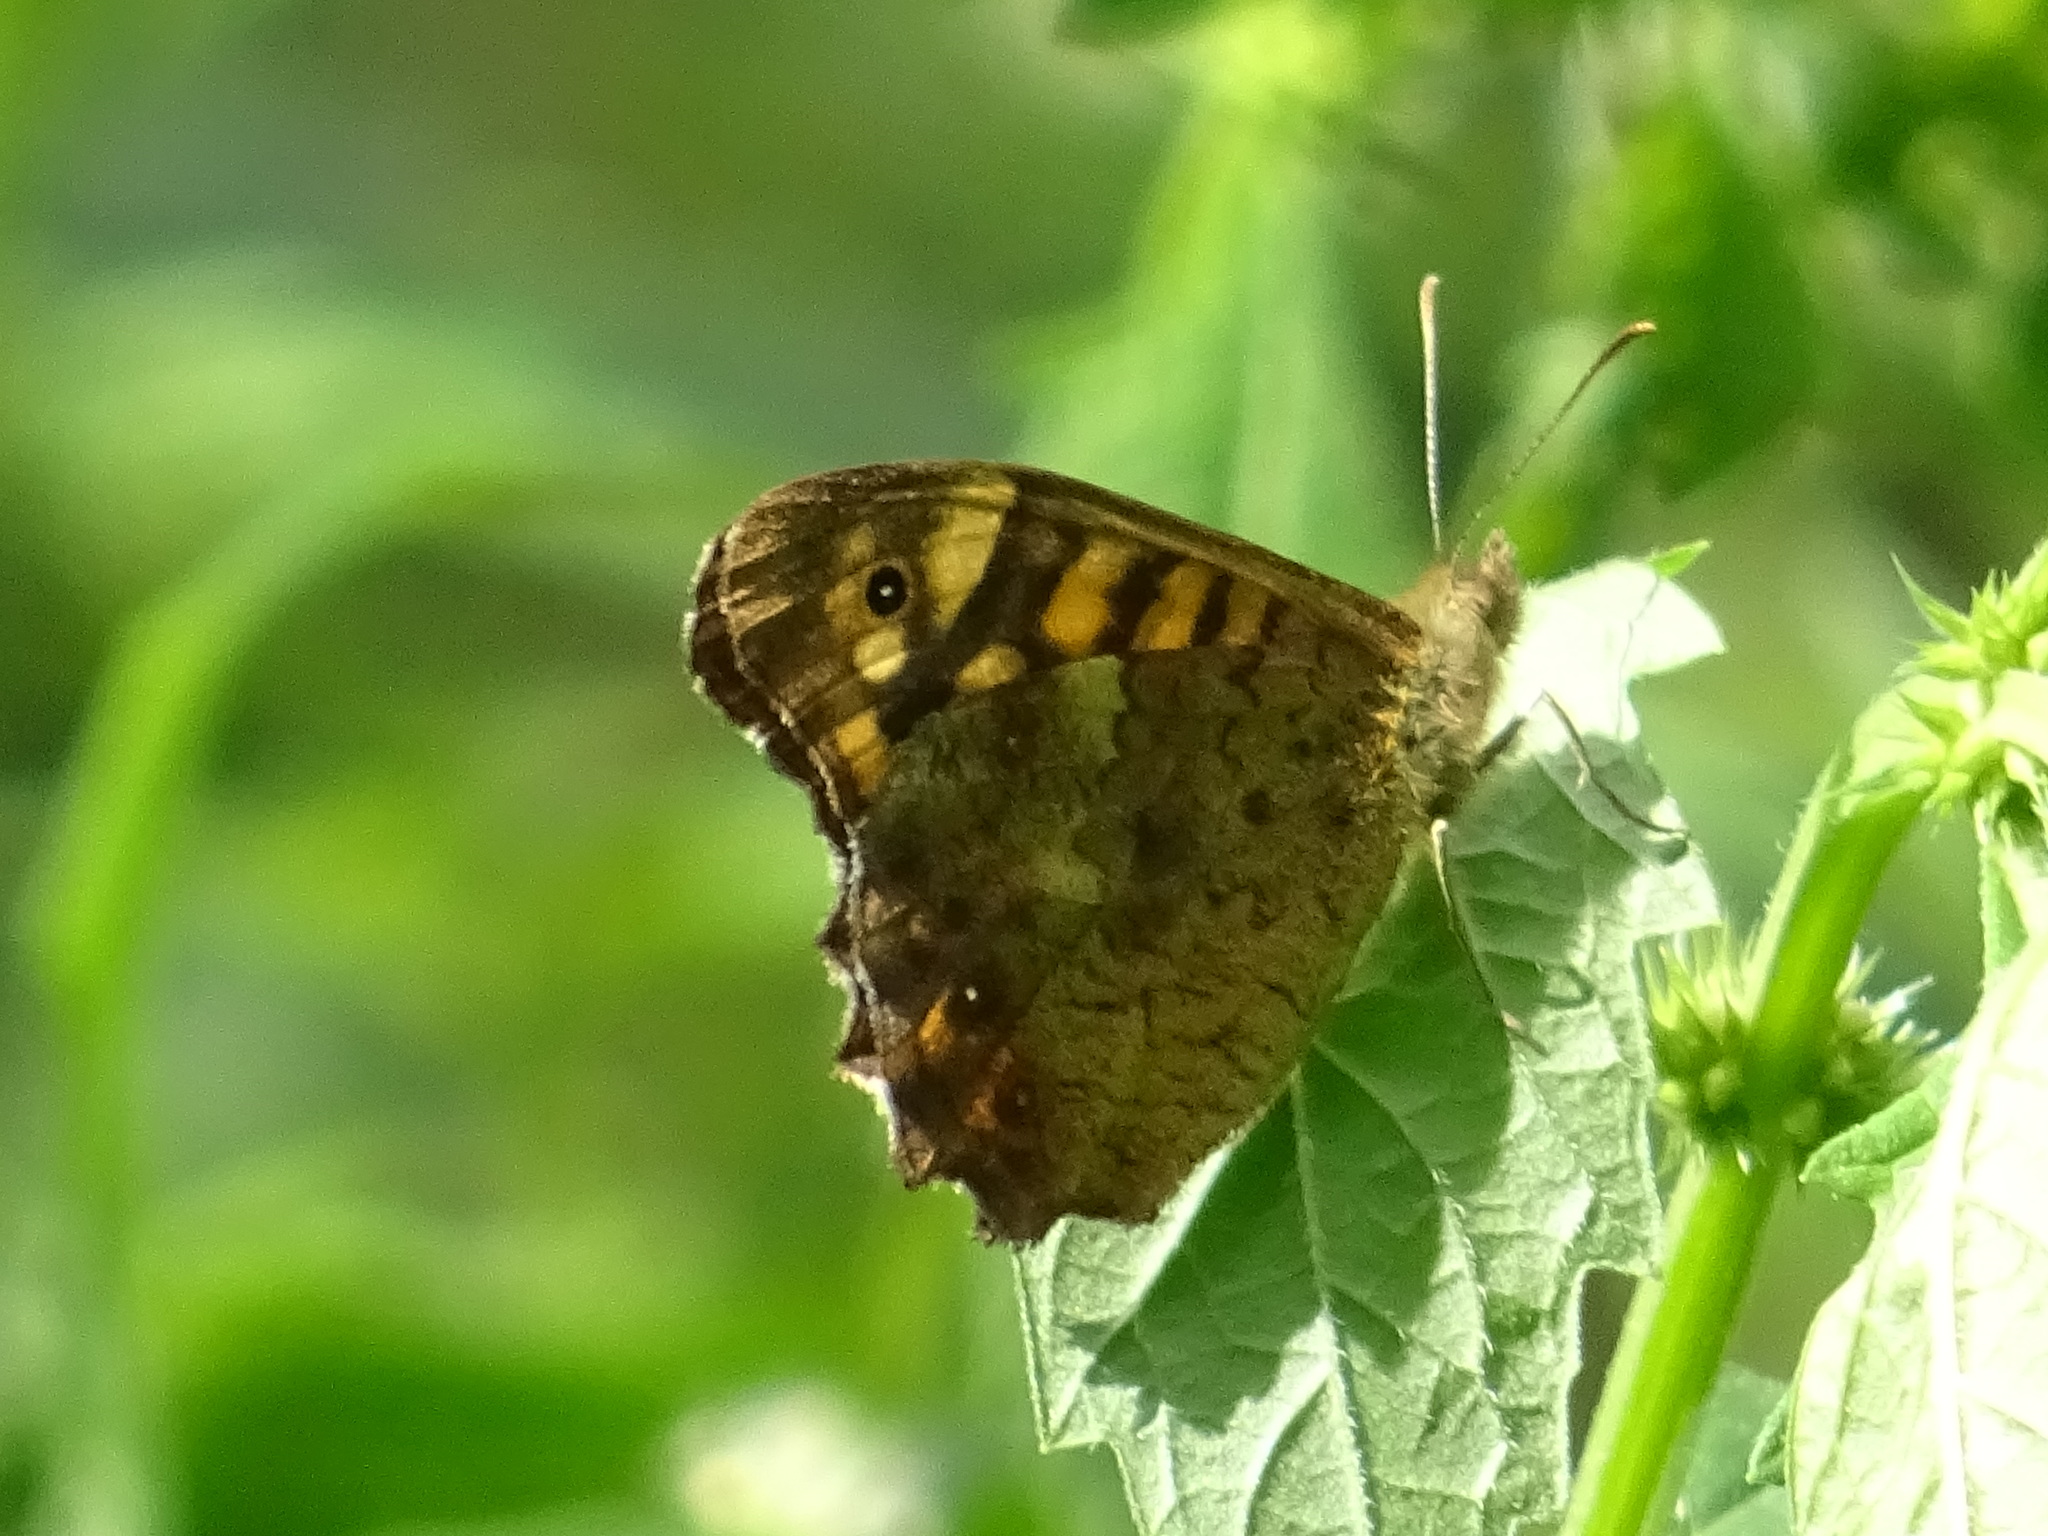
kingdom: Animalia
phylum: Arthropoda
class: Insecta
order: Lepidoptera
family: Nymphalidae
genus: Pararge
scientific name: Pararge aegeria
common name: Speckled wood
